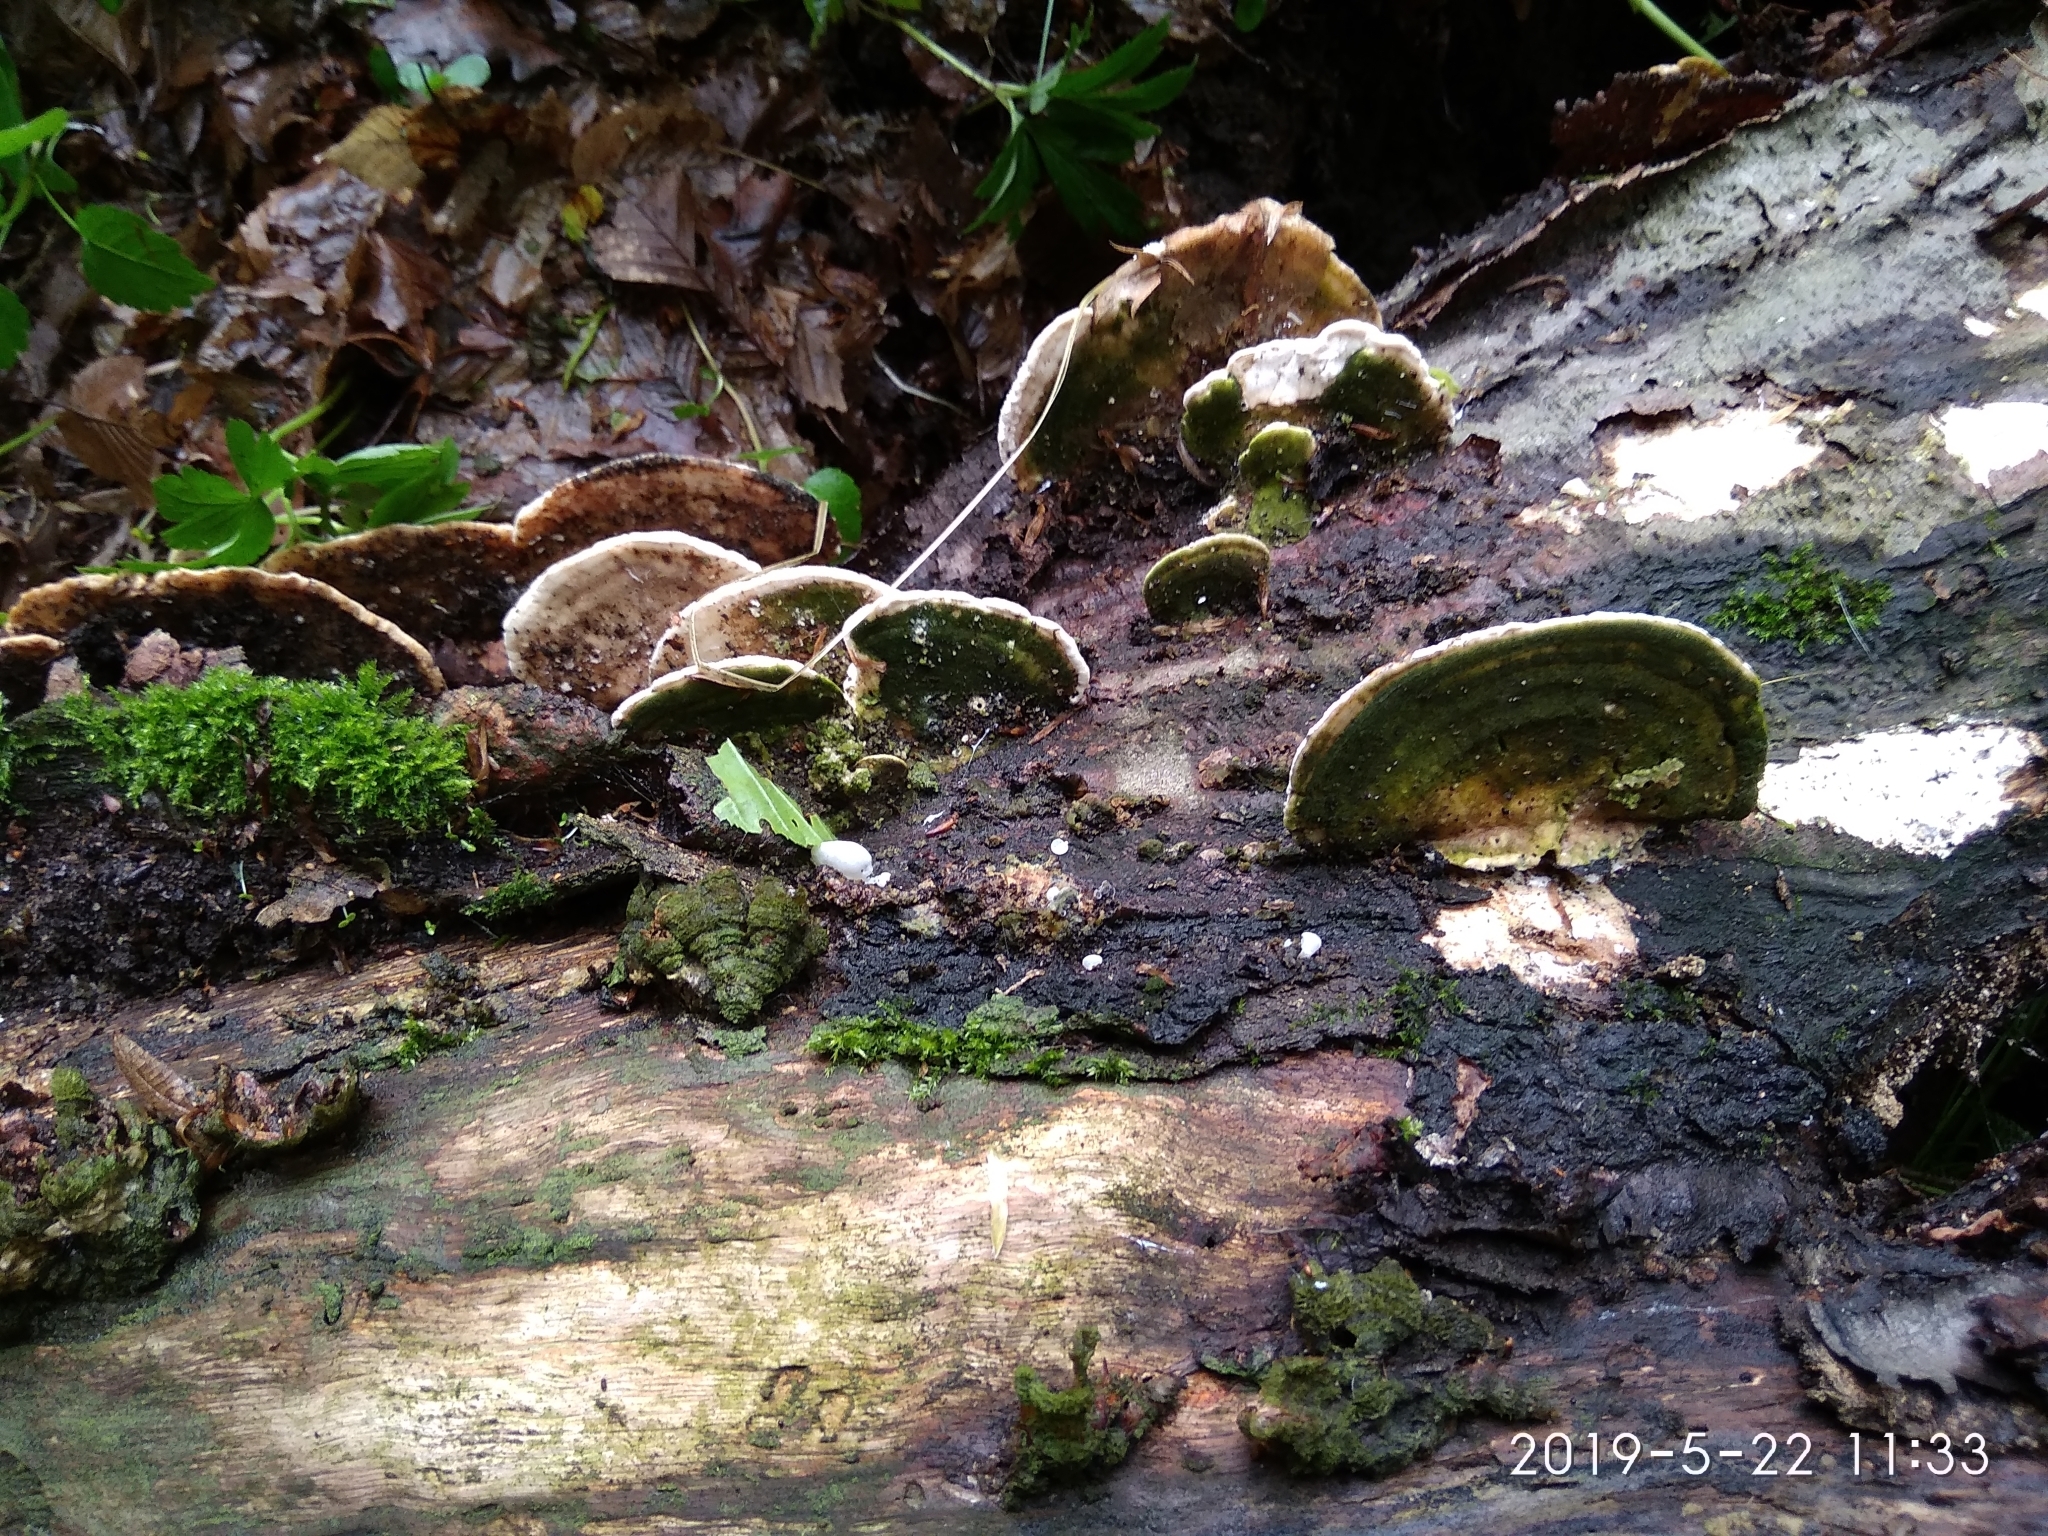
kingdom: Fungi
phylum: Basidiomycota
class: Agaricomycetes
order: Polyporales
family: Polyporaceae
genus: Trametes
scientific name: Trametes hirsuta
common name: Hairy bracket
